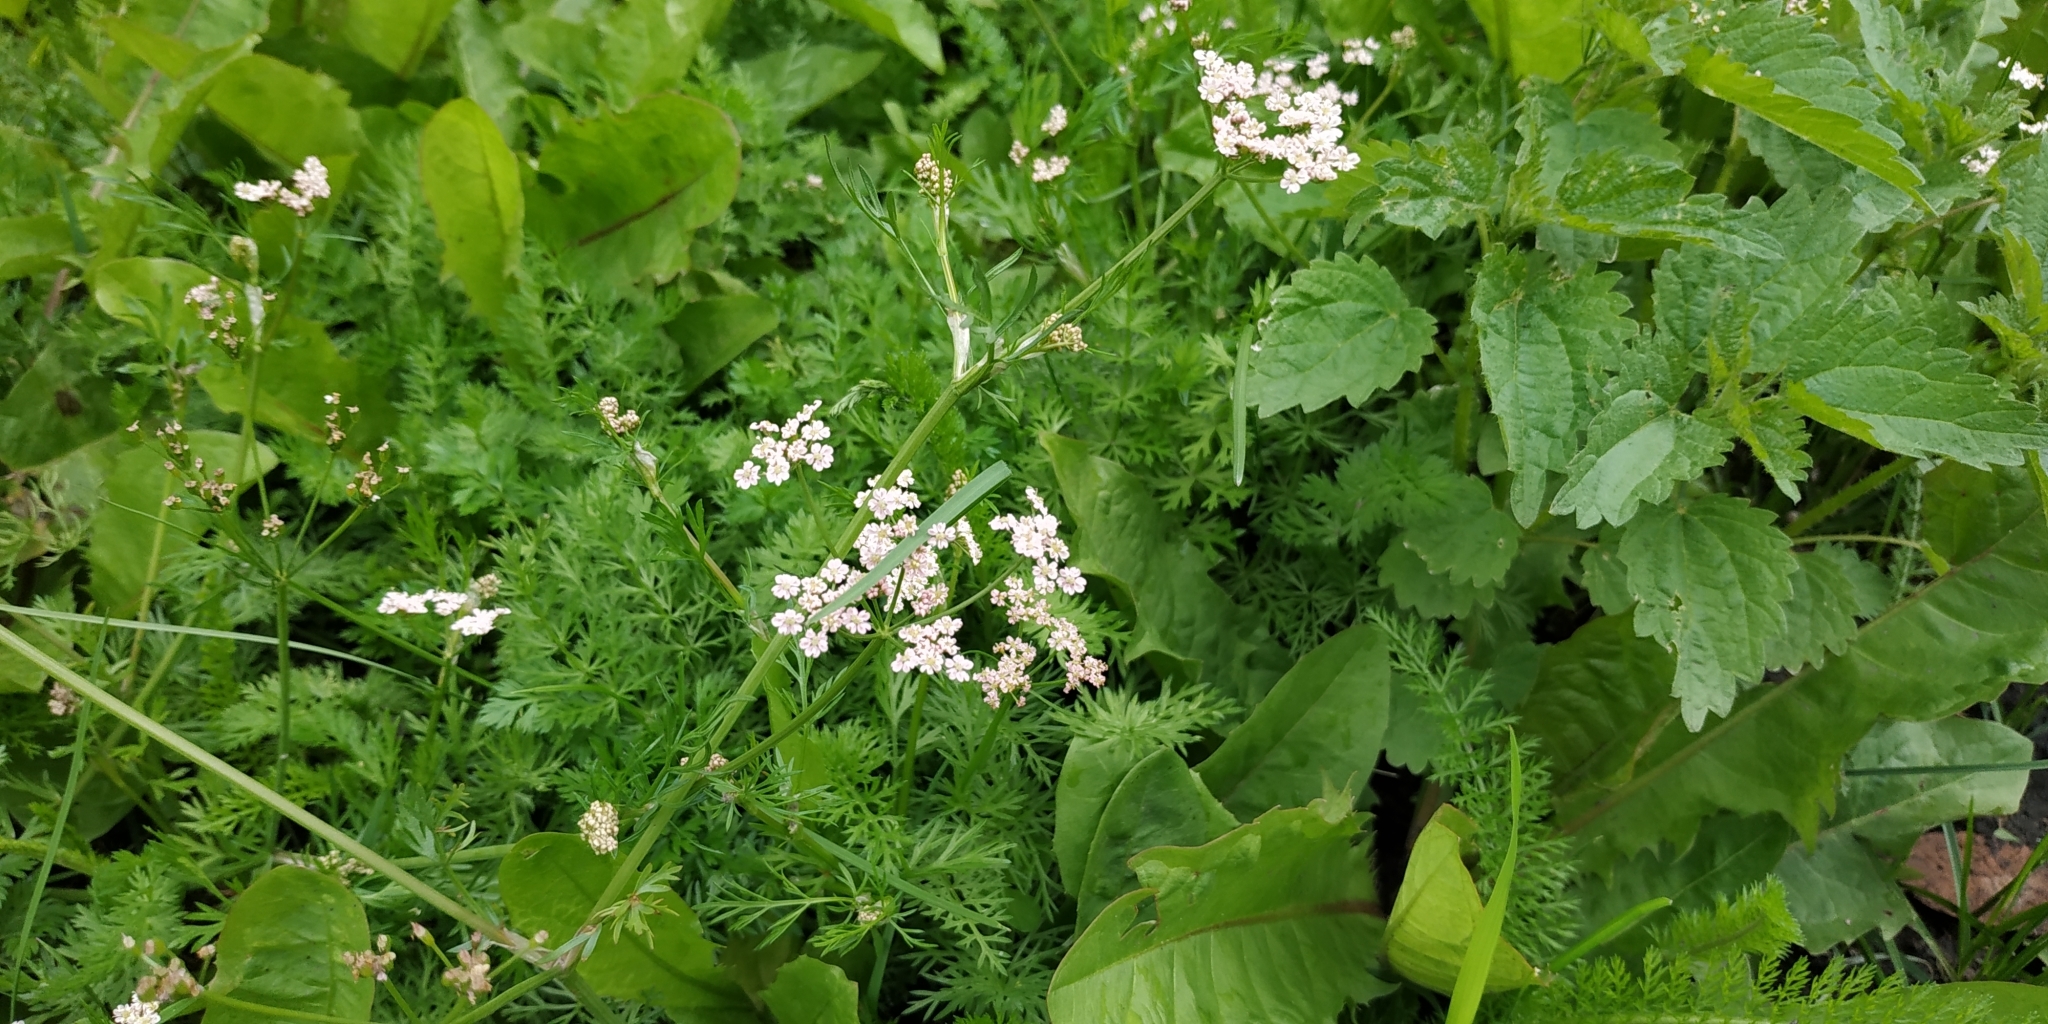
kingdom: Plantae
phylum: Tracheophyta
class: Magnoliopsida
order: Apiales
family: Apiaceae
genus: Carum
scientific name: Carum carvi
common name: Caraway
